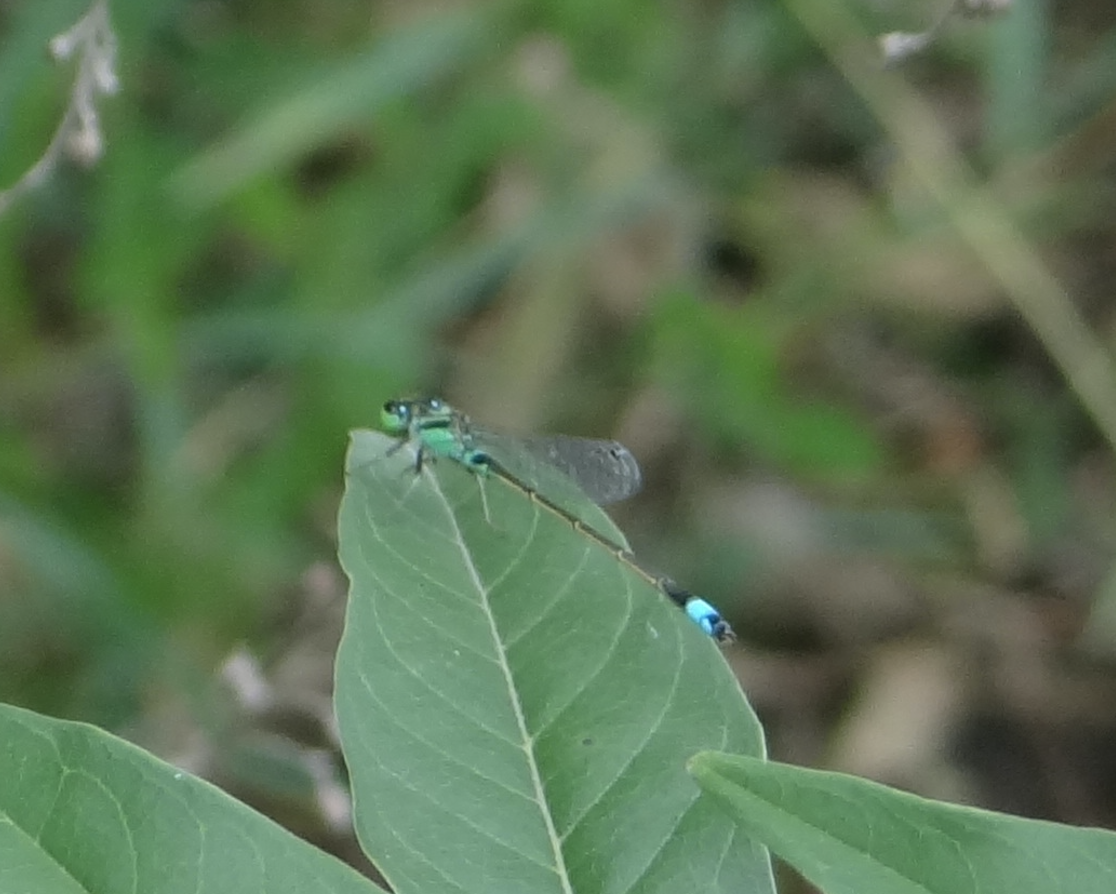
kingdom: Animalia
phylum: Arthropoda
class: Insecta
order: Odonata
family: Coenagrionidae
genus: Ischnura
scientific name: Ischnura senegalensis
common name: Tropical bluetail
